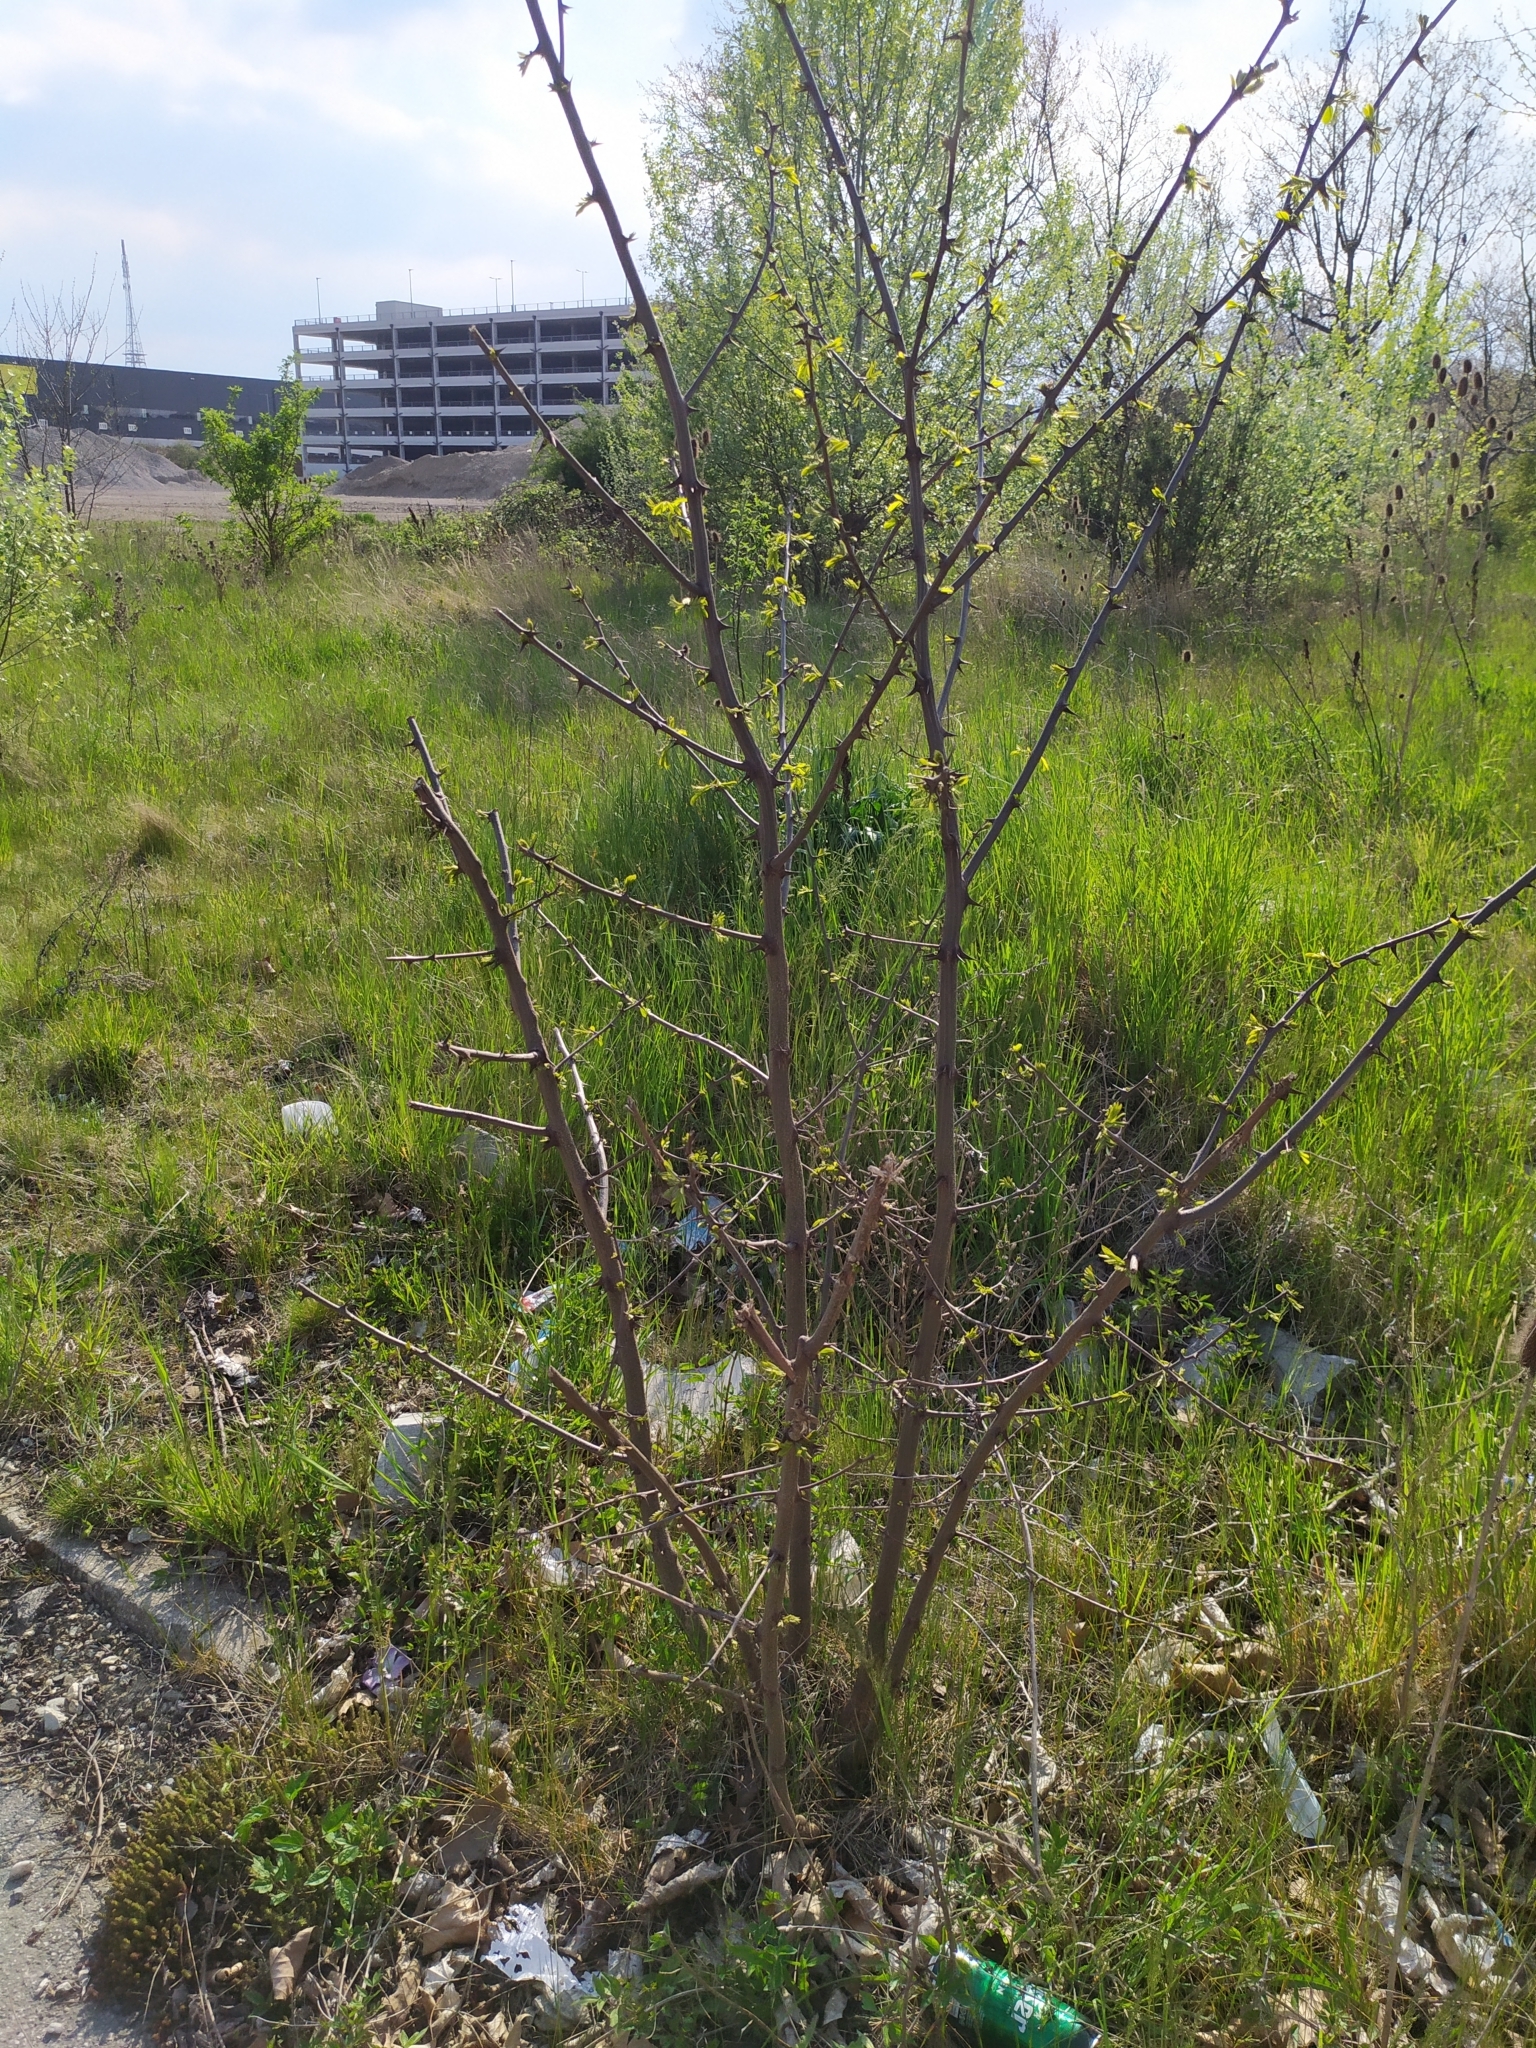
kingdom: Plantae
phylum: Tracheophyta
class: Magnoliopsida
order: Fabales
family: Fabaceae
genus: Robinia
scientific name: Robinia pseudoacacia
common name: Black locust
